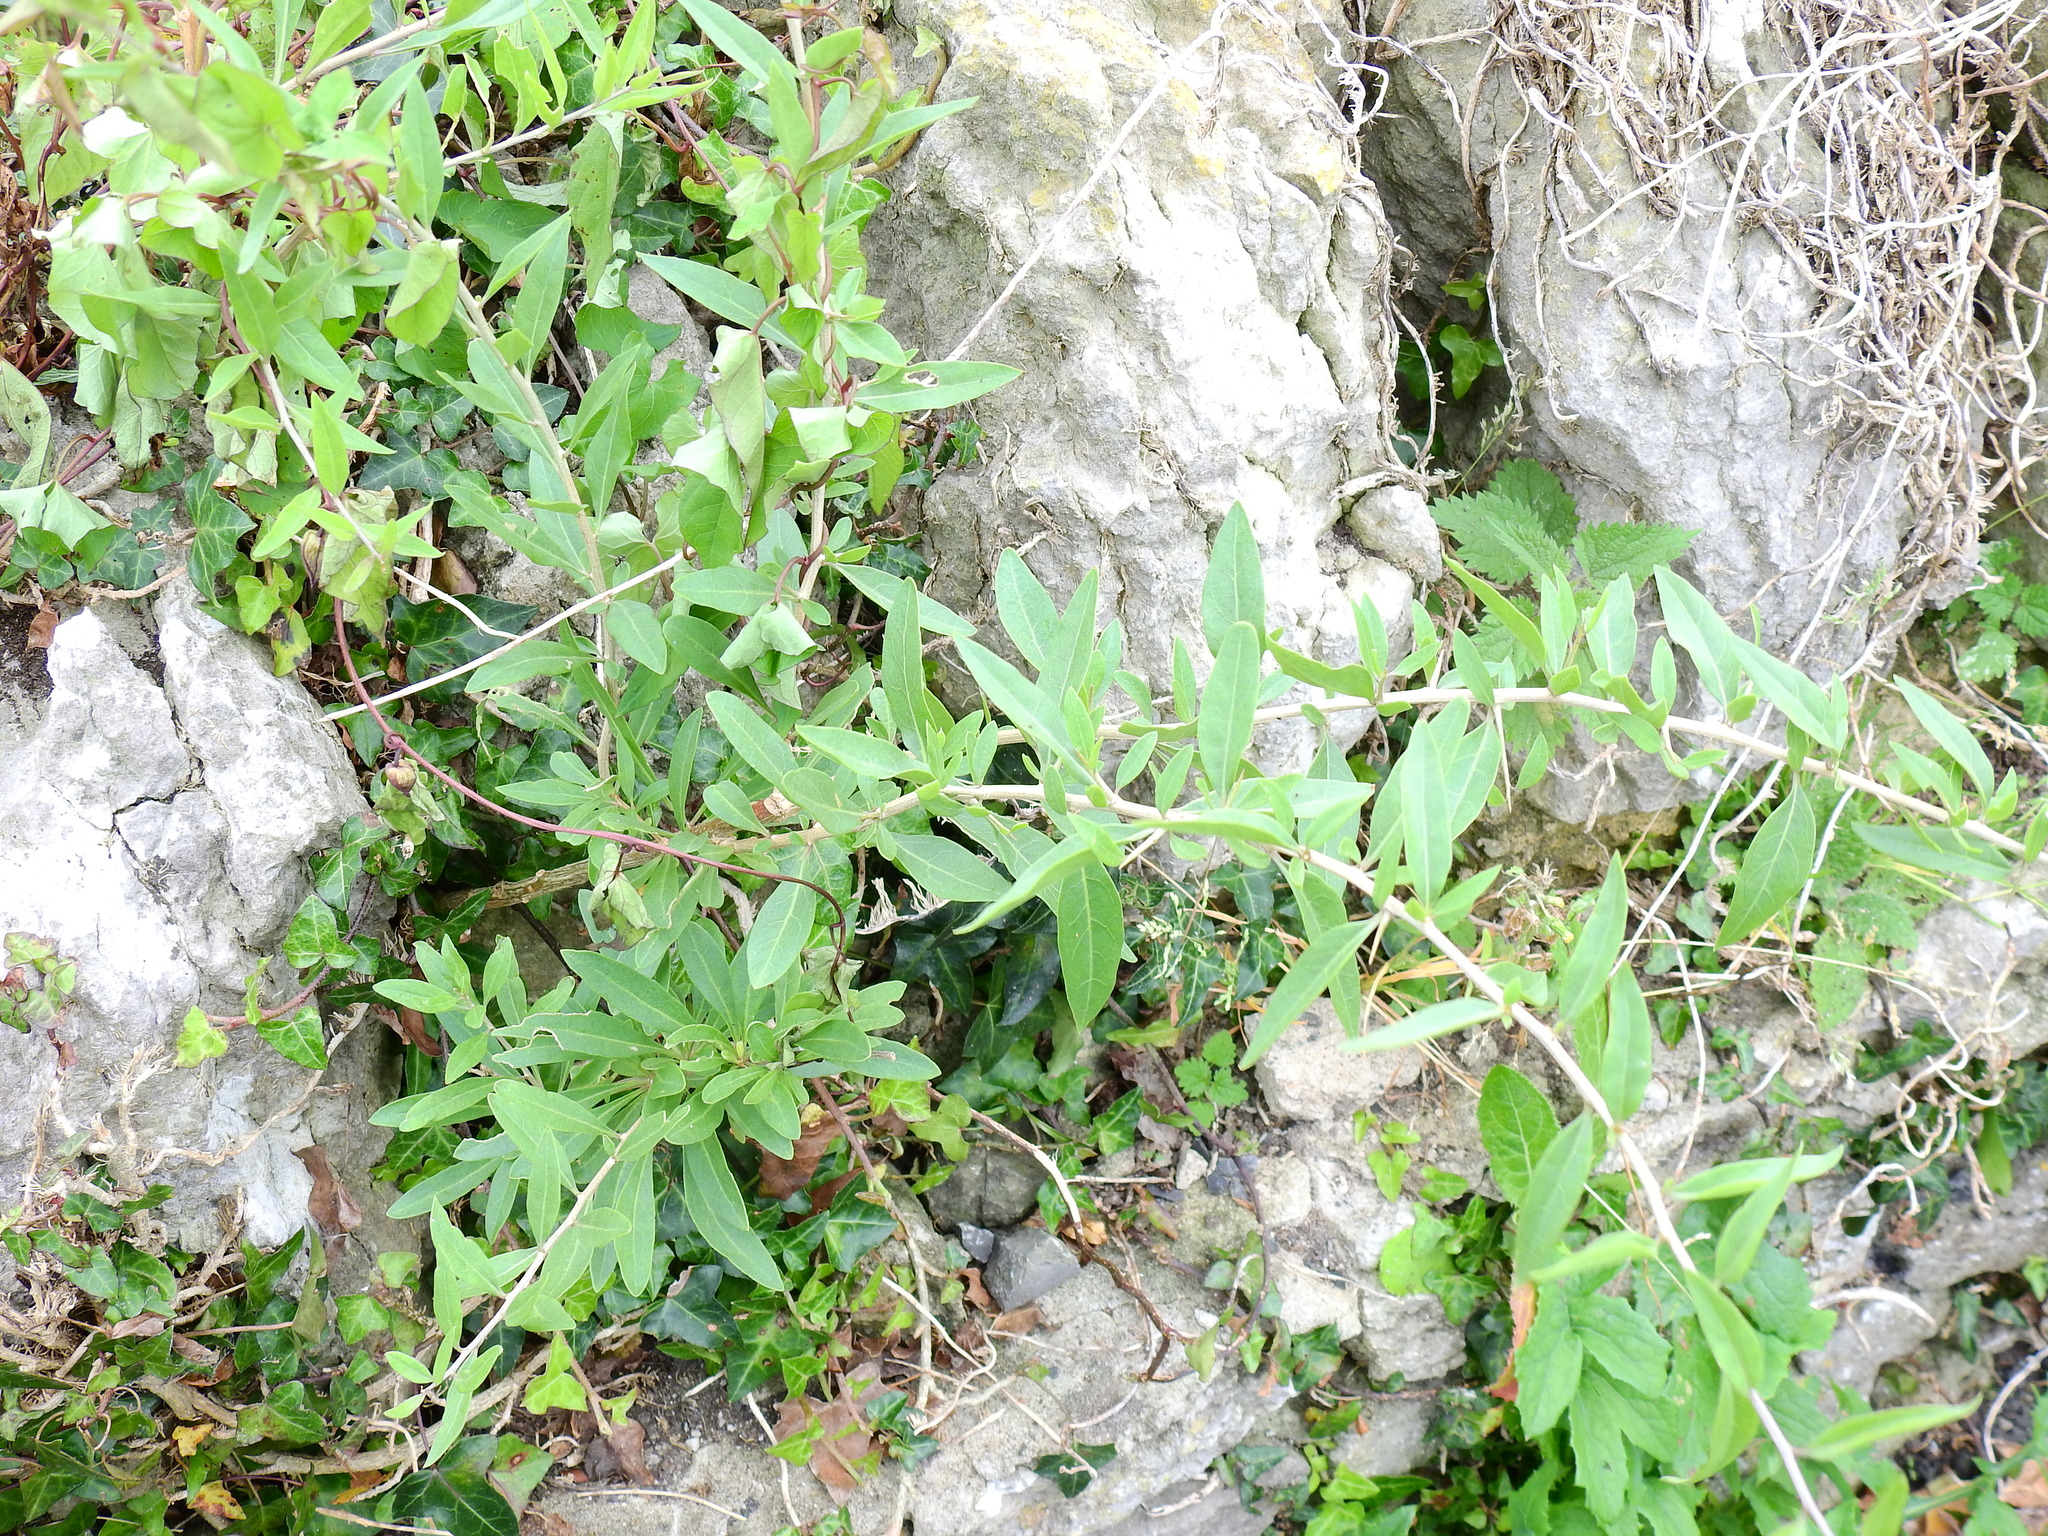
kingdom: Plantae
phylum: Tracheophyta
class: Magnoliopsida
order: Solanales
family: Solanaceae
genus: Lycium
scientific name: Lycium barbarum
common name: Duke of argyll's teaplant
